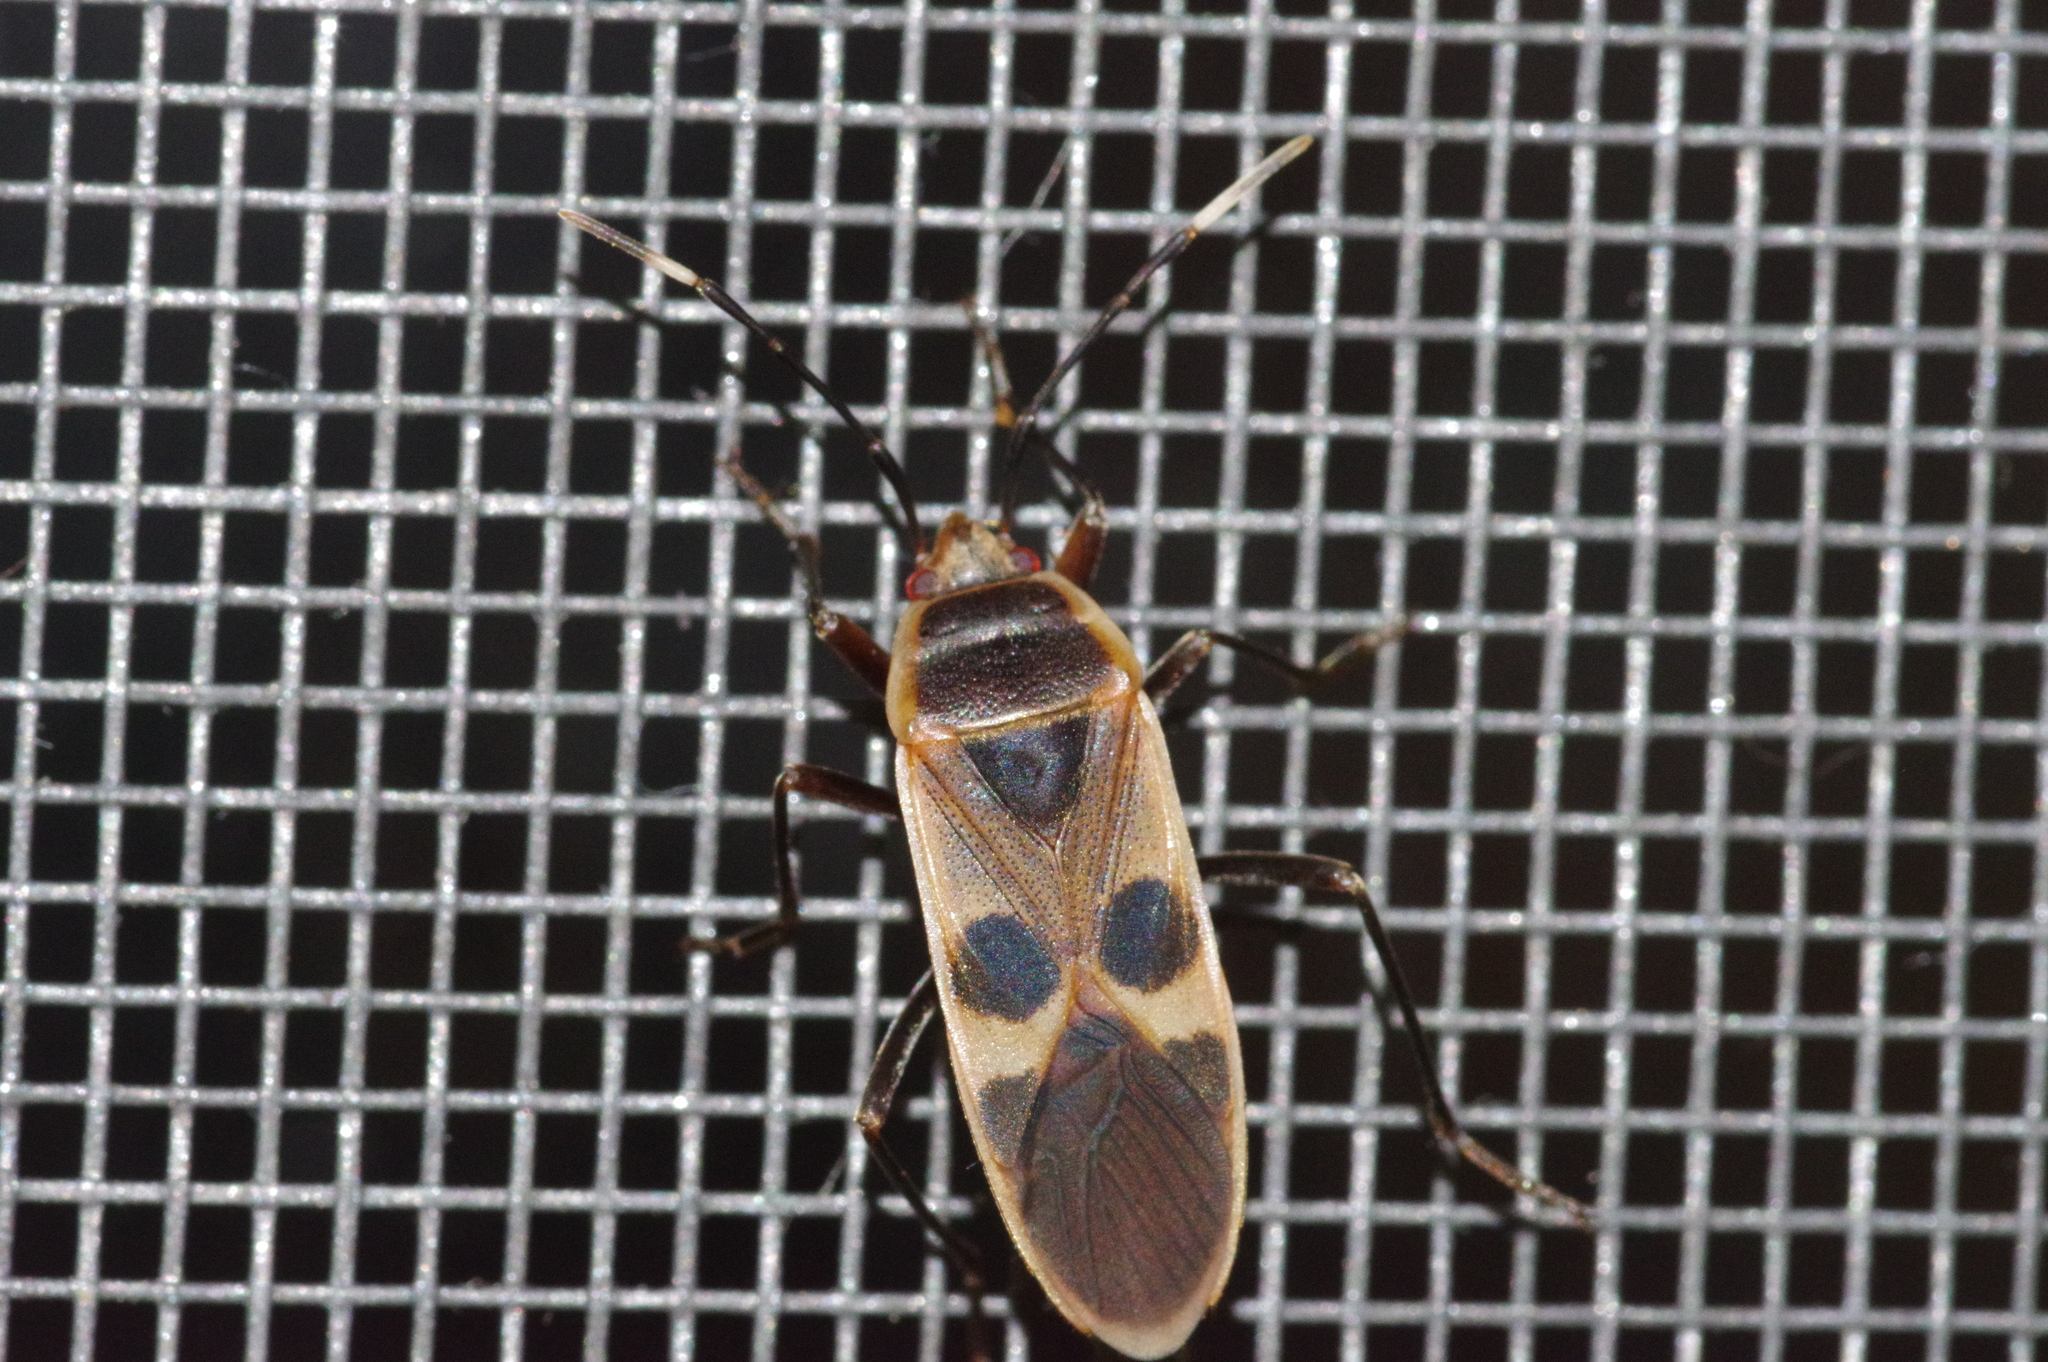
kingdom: Animalia
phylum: Arthropoda
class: Insecta
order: Hemiptera
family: Largidae
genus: Physopelta
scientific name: Physopelta gutta
